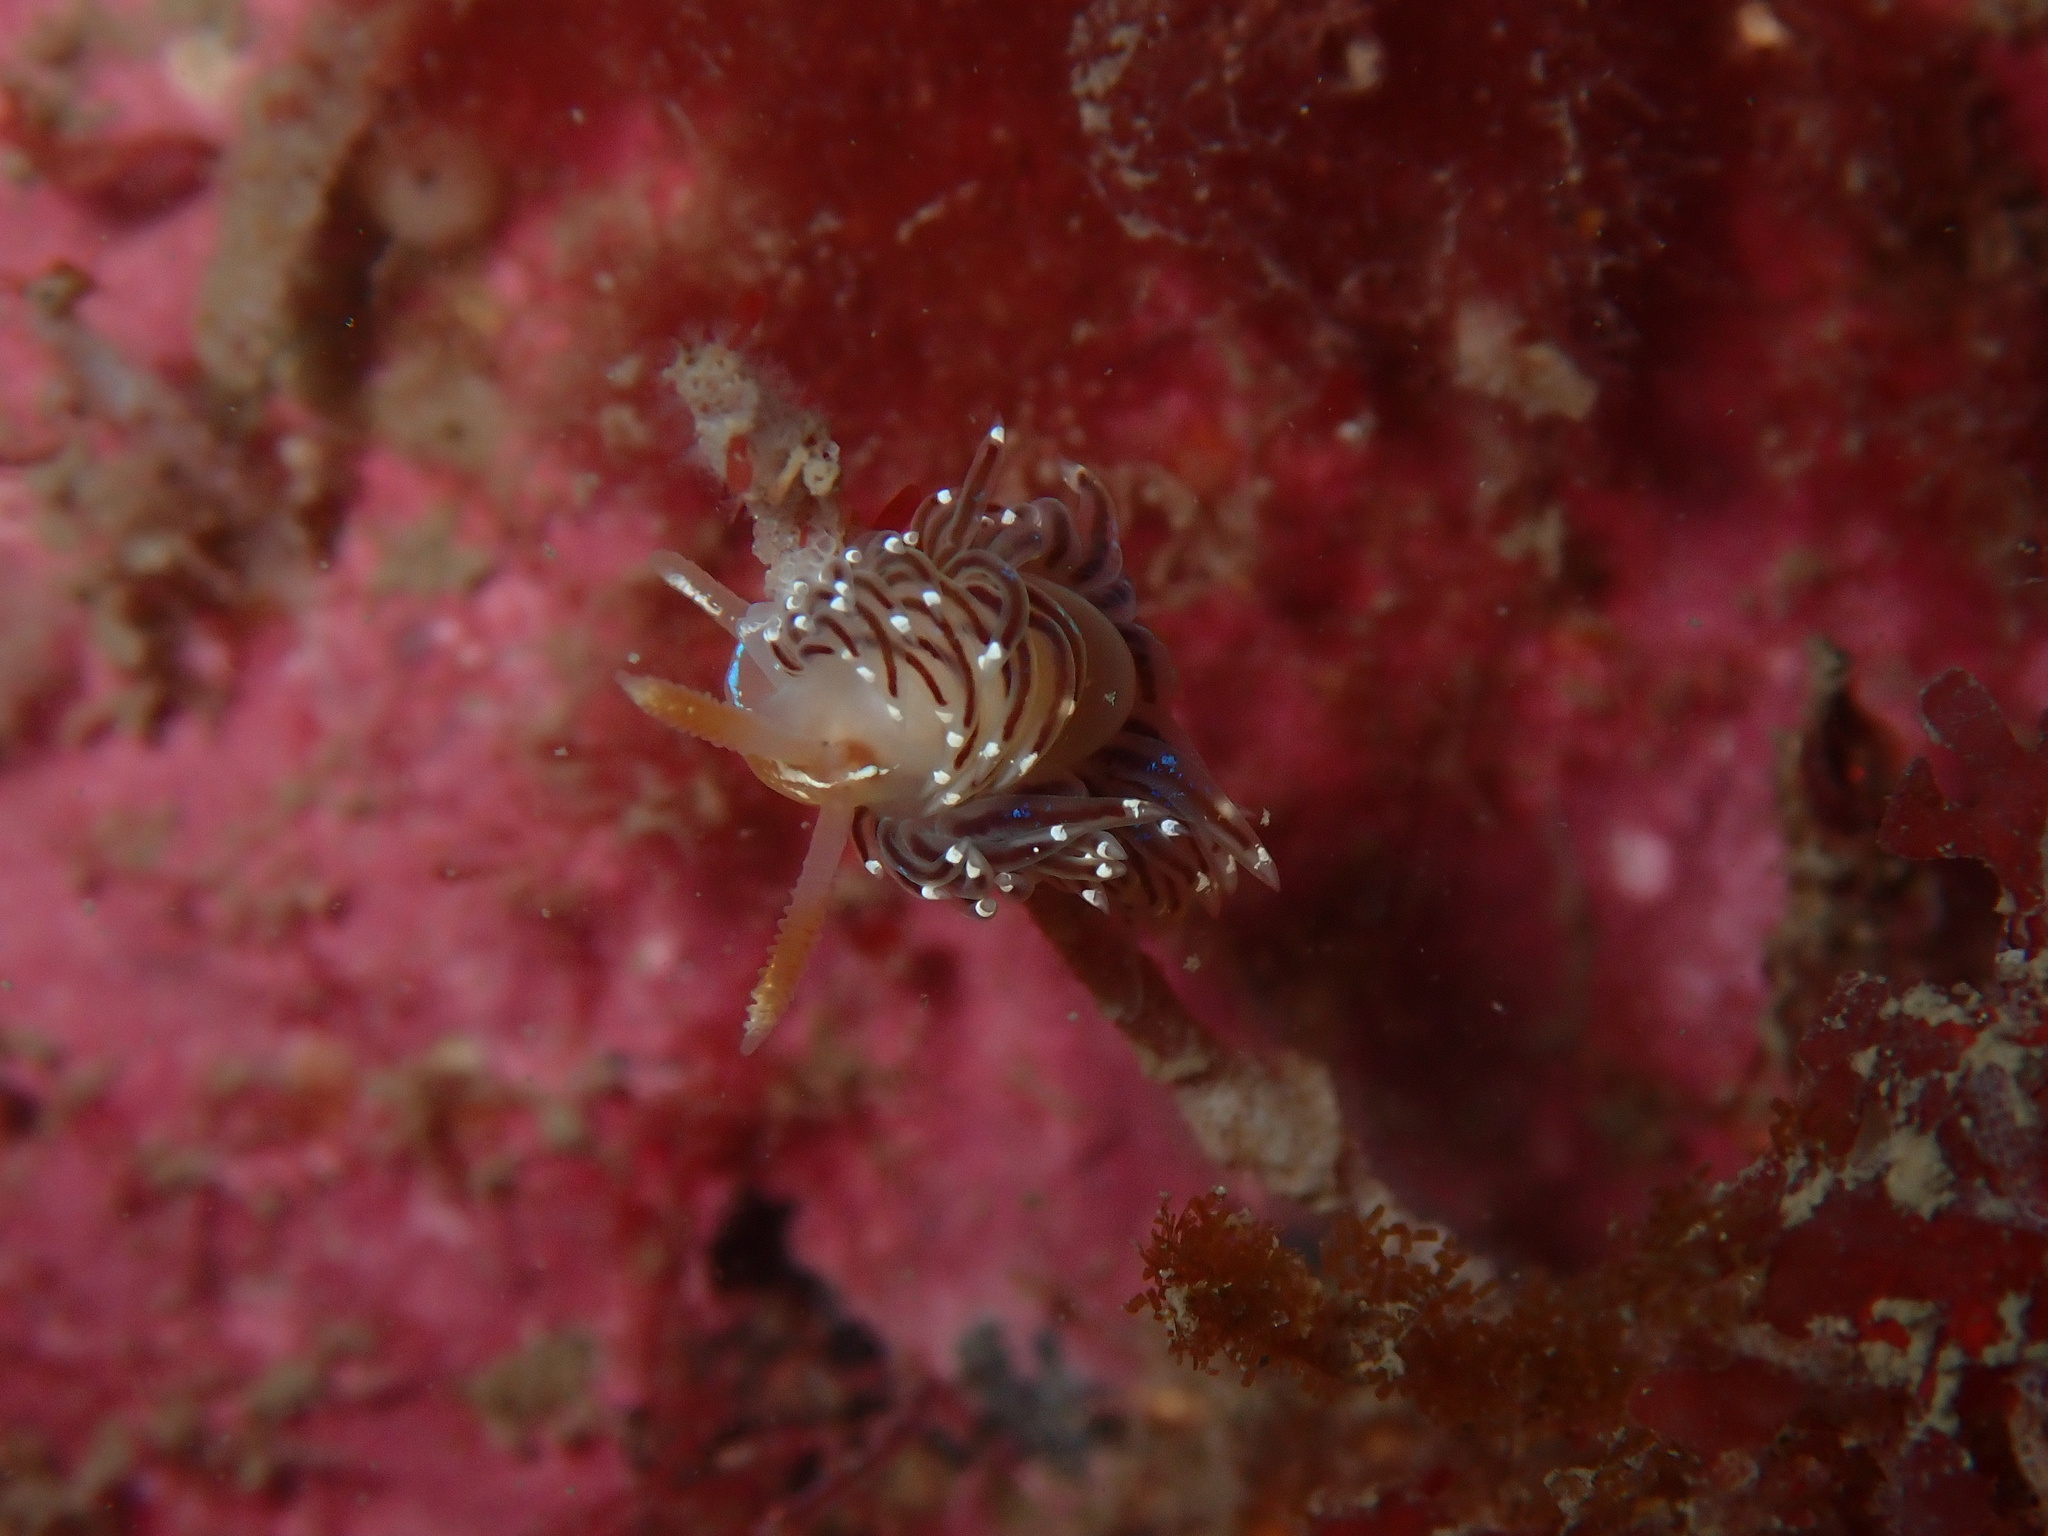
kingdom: Animalia
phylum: Mollusca
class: Gastropoda
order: Nudibranchia
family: Facelinidae
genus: Facelina
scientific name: Facelina bostoniensis
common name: Boston facelina
